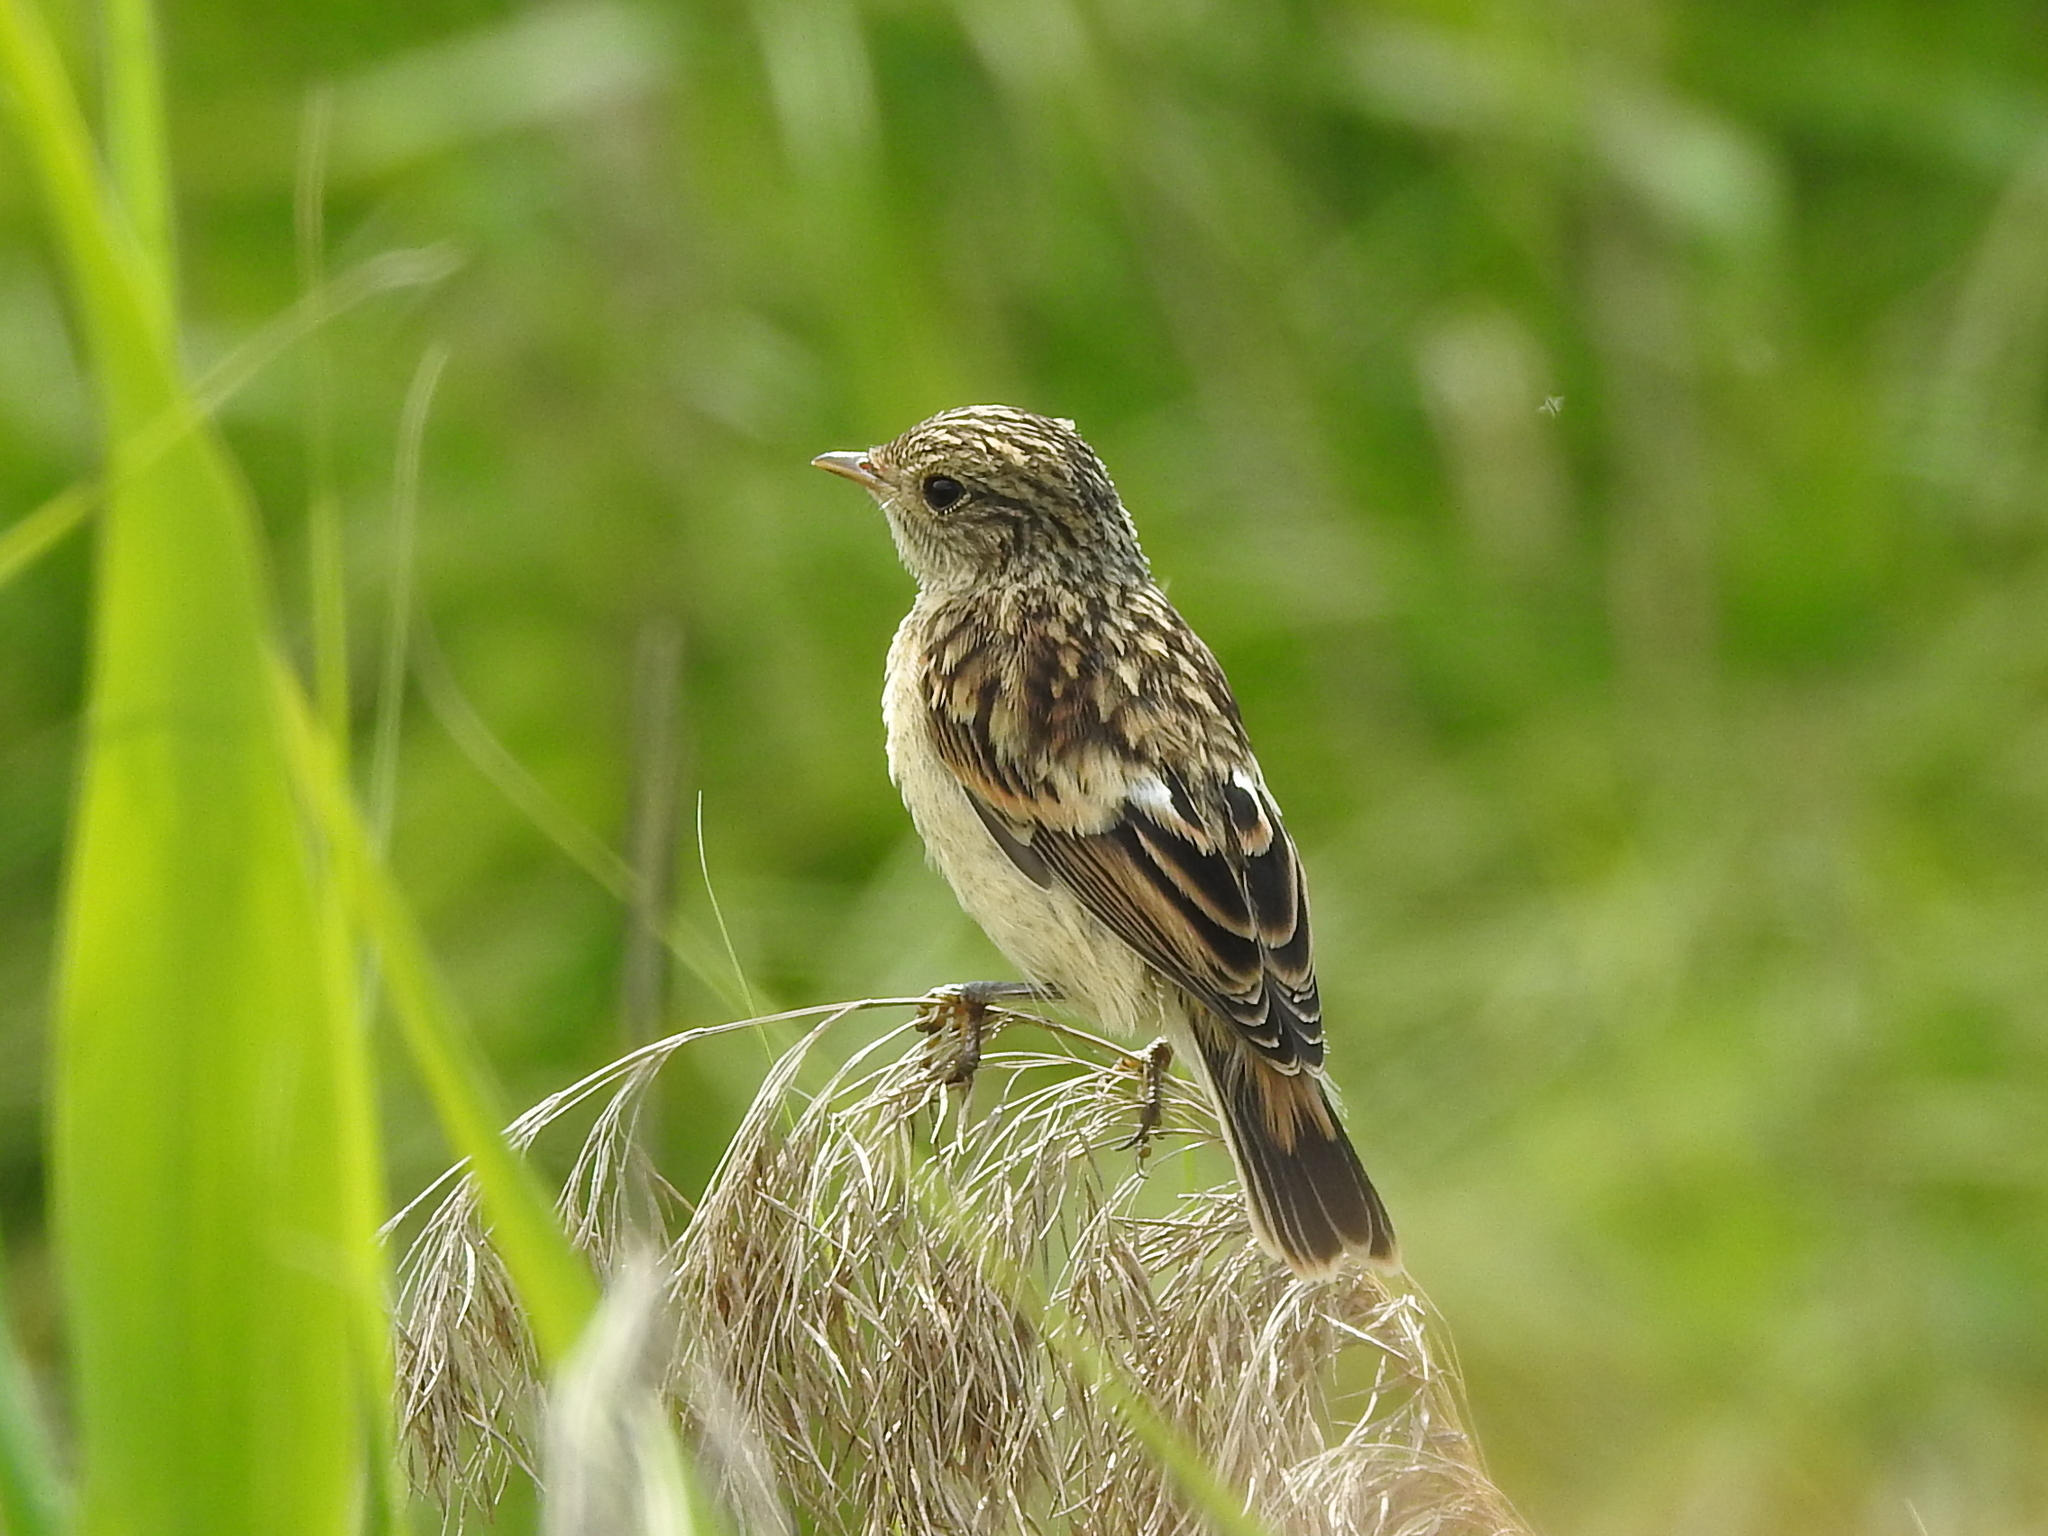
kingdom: Animalia
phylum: Chordata
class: Aves
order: Passeriformes
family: Muscicapidae
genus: Saxicola
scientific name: Saxicola maurus
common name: Siberian stonechat
